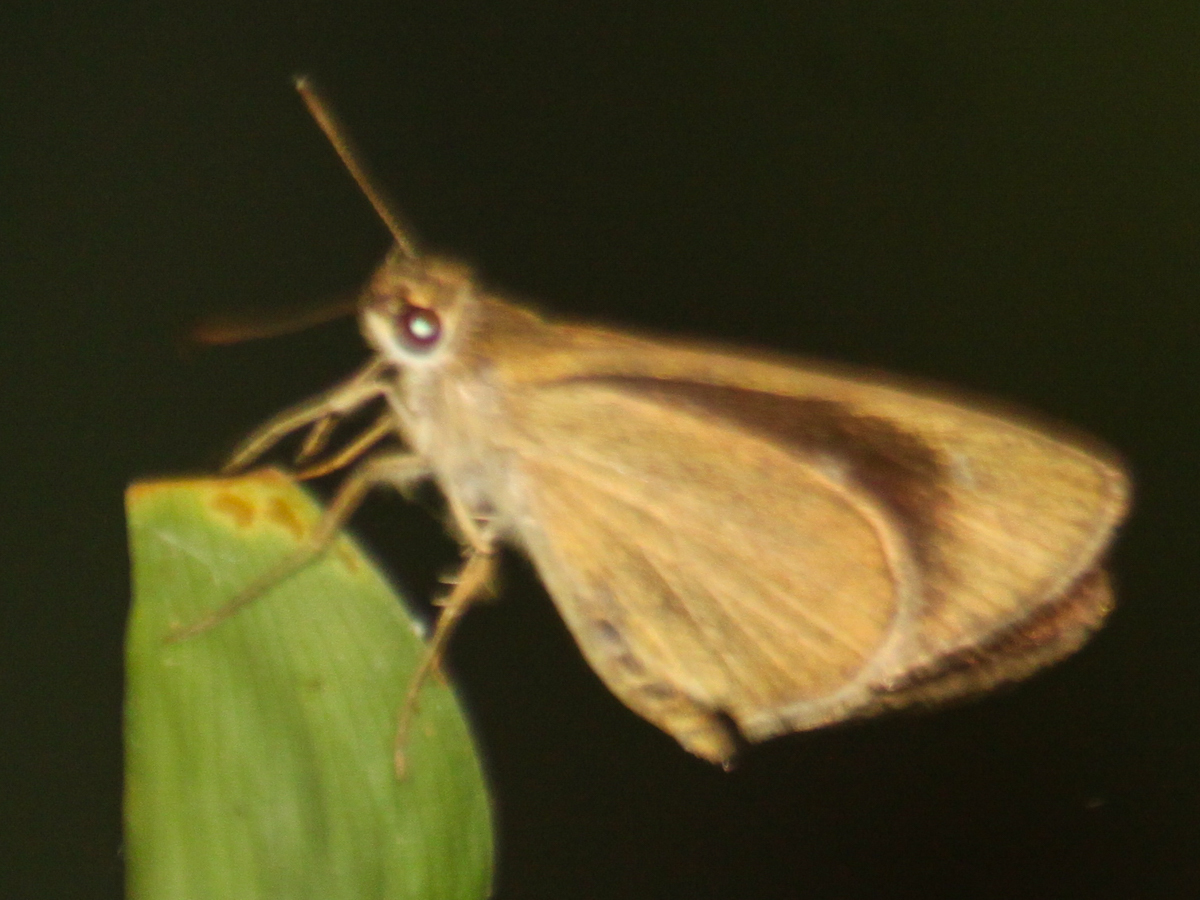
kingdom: Animalia
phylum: Arthropoda
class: Insecta
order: Lepidoptera
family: Hesperiidae
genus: Suada
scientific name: Suada swerga
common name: Grass bob
